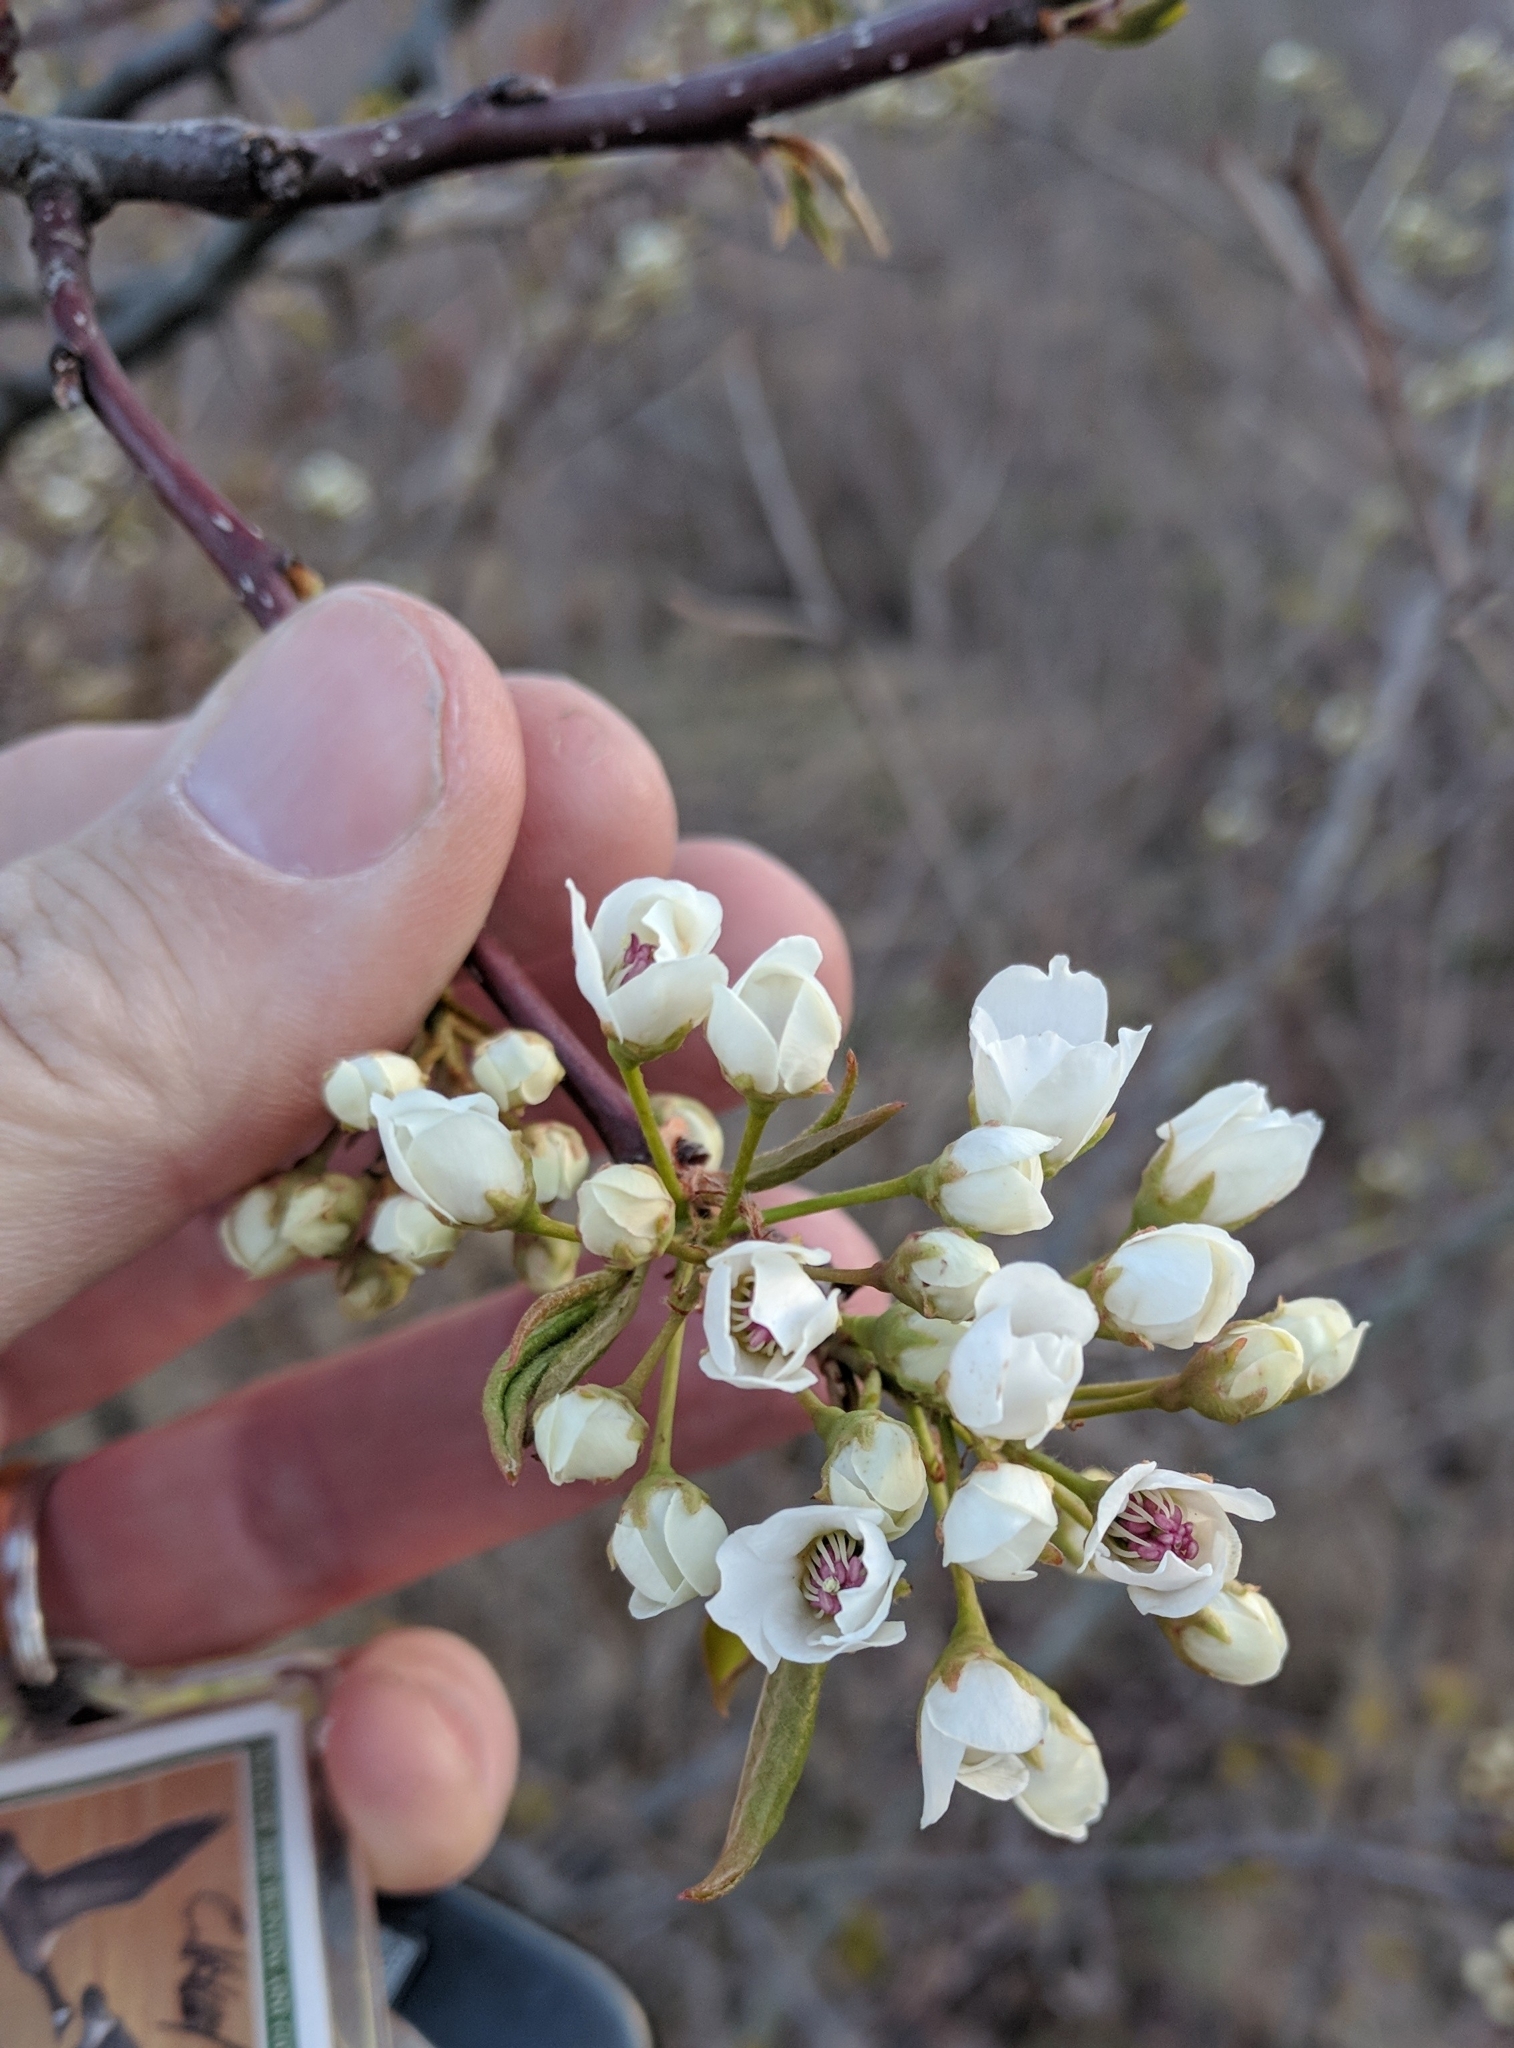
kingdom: Plantae
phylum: Tracheophyta
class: Magnoliopsida
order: Rosales
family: Rosaceae
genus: Pyrus
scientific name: Pyrus calleryana
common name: Callery pear
